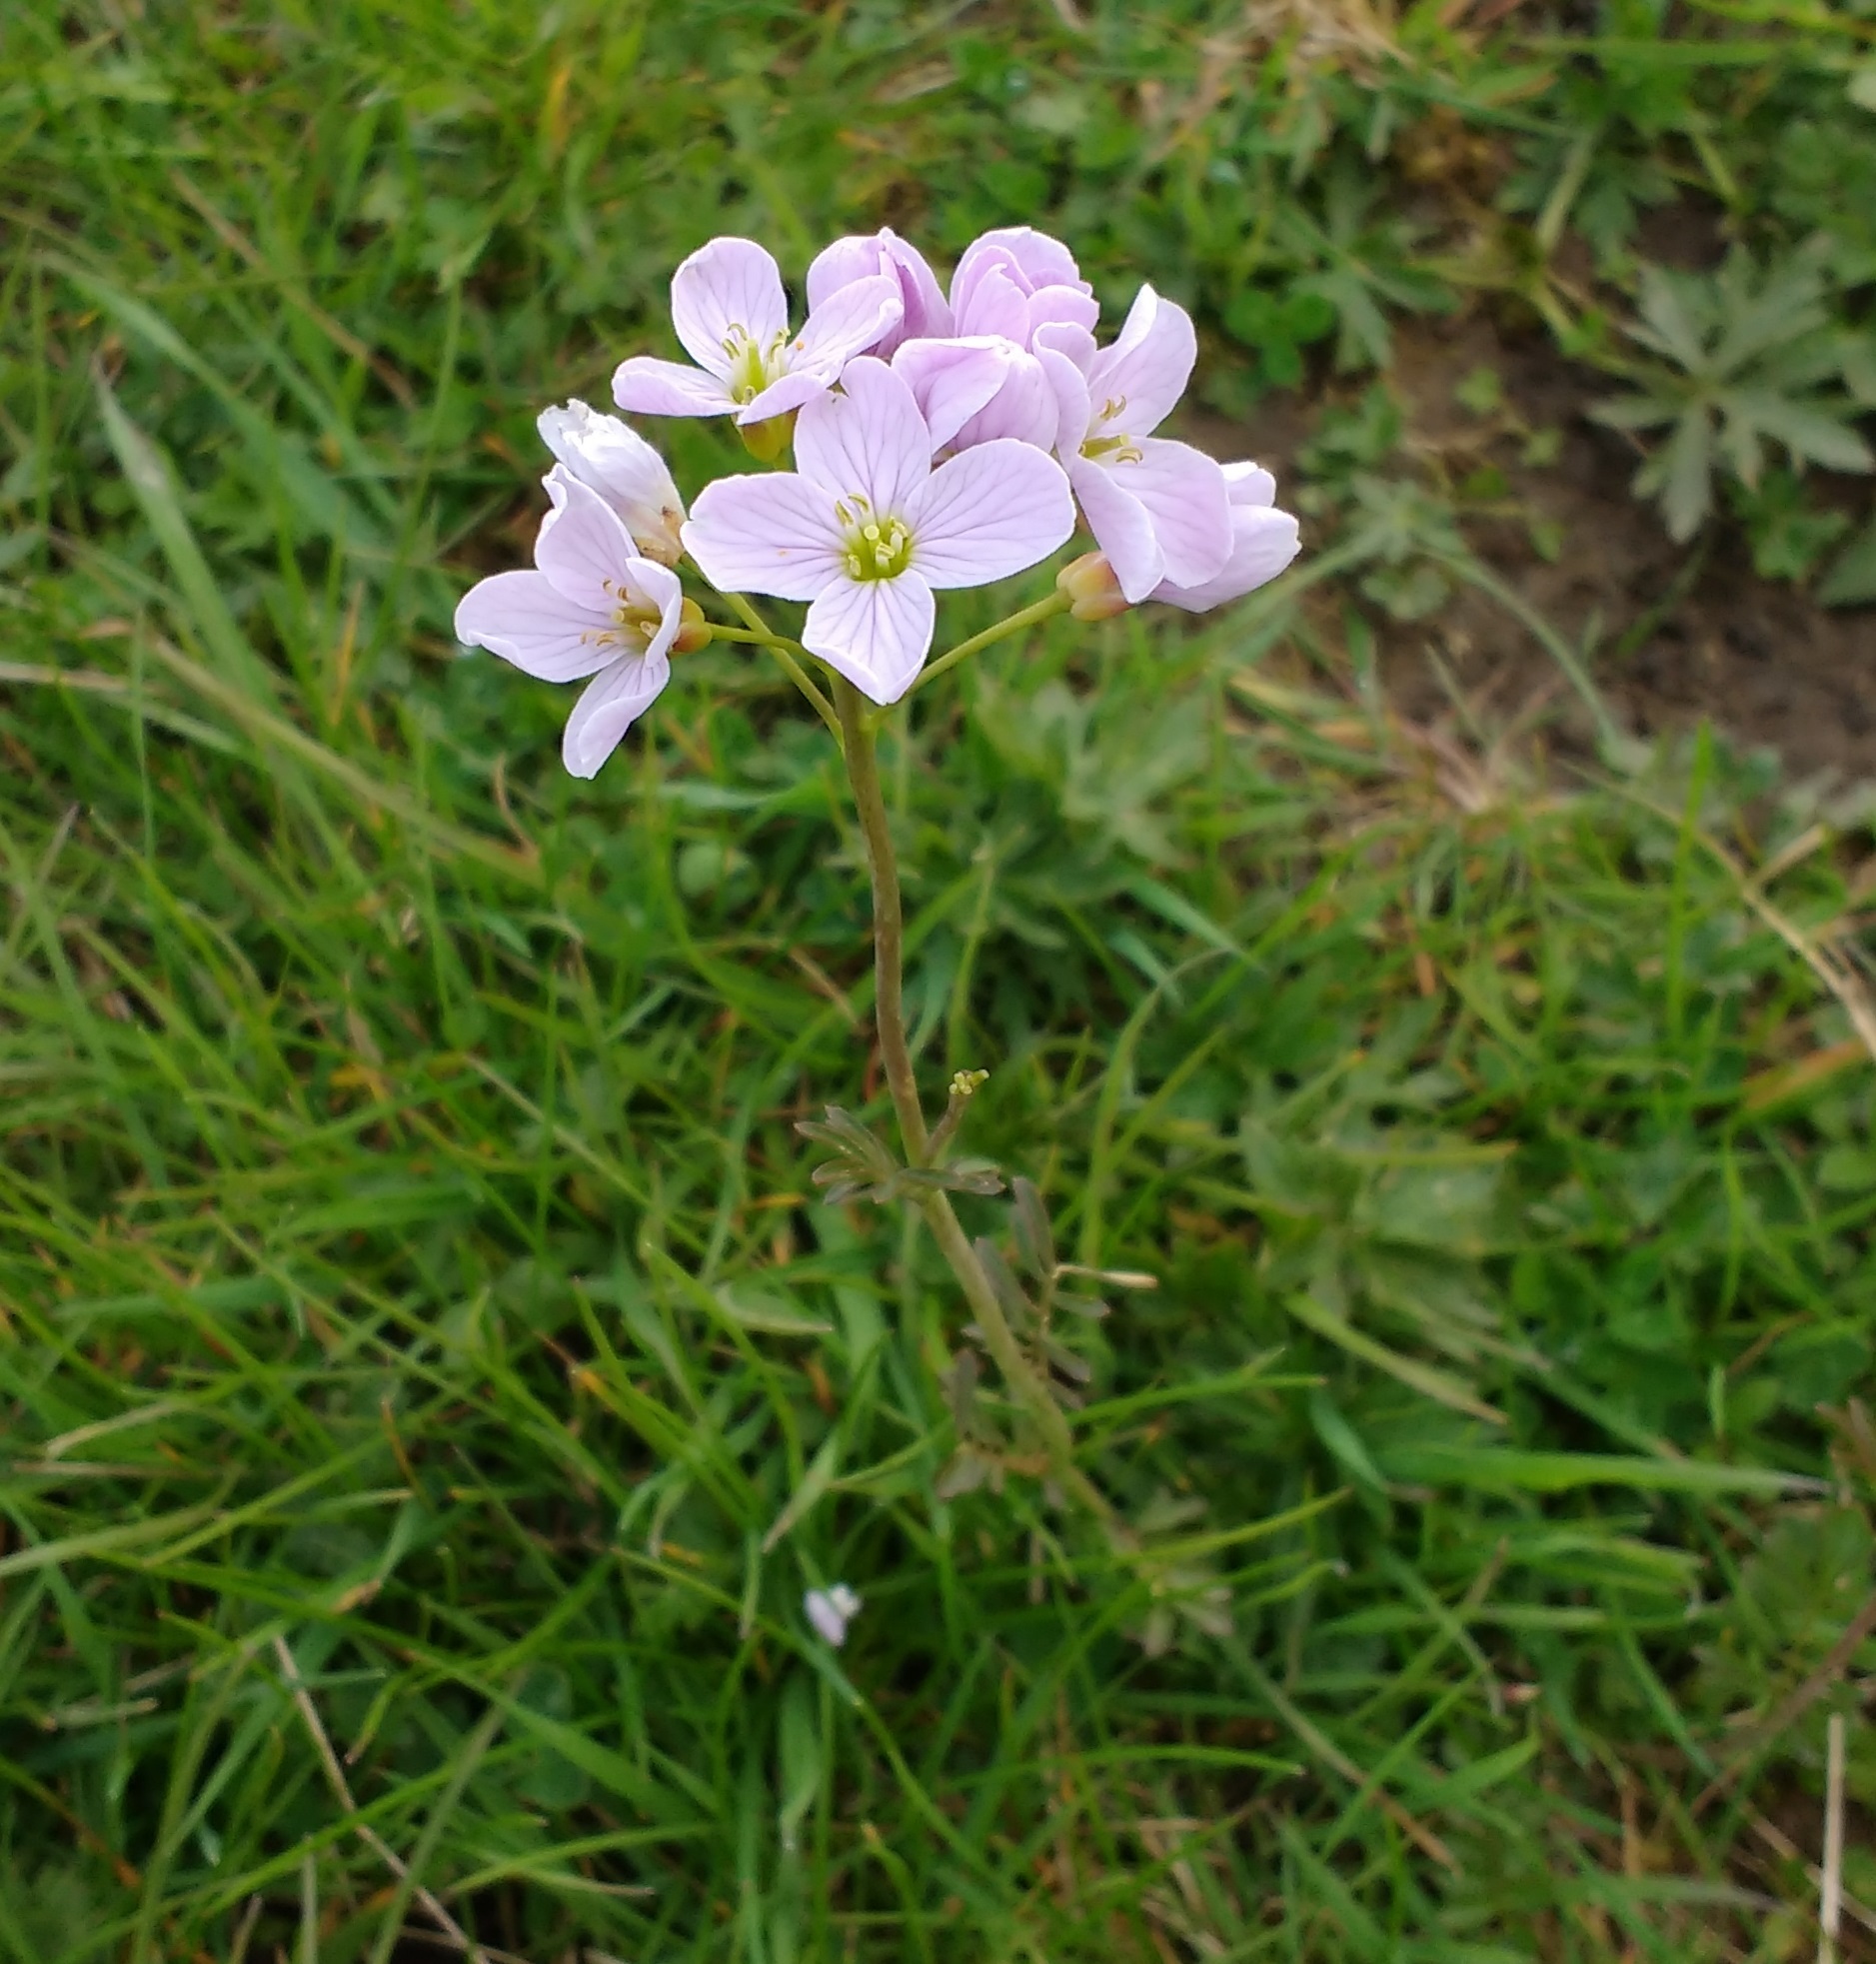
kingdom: Plantae
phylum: Tracheophyta
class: Magnoliopsida
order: Brassicales
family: Brassicaceae
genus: Cardamine
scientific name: Cardamine pratensis
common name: Cuckoo flower
